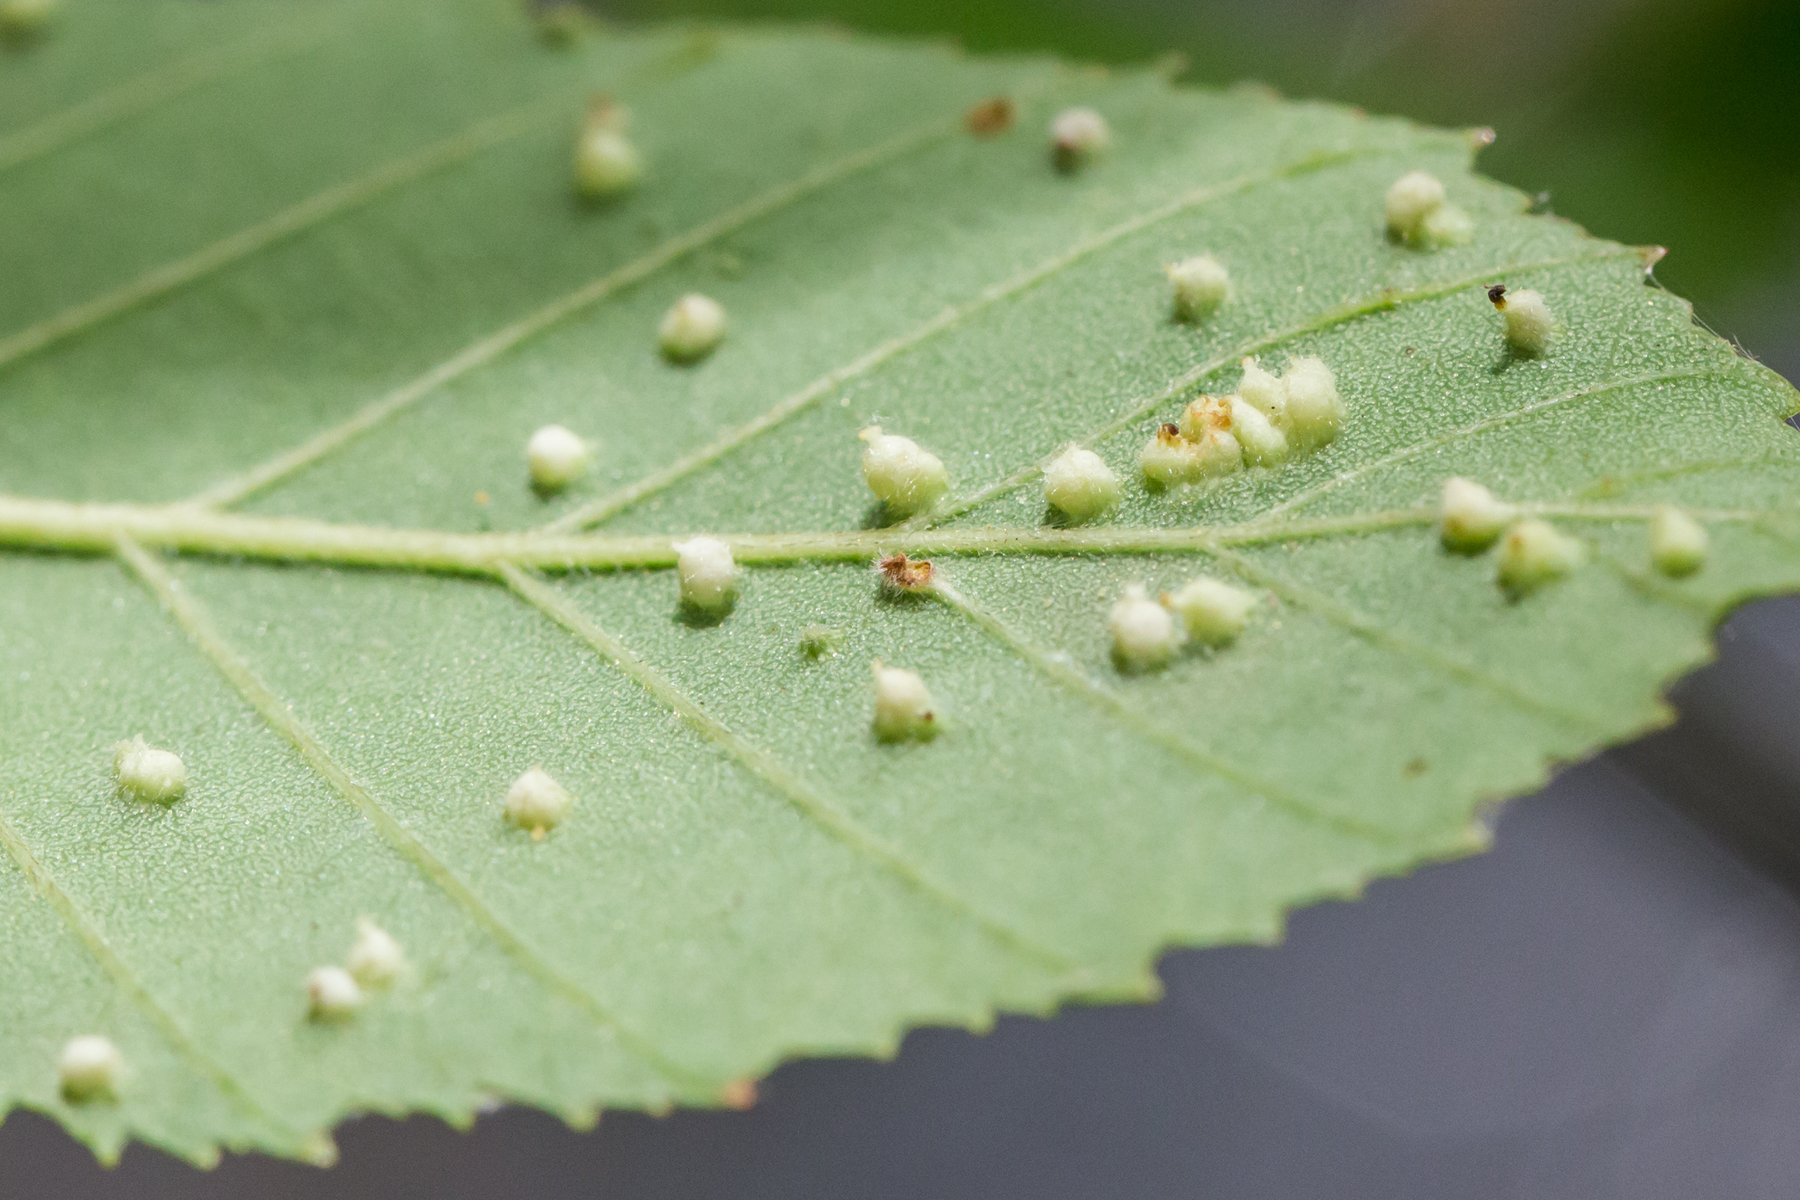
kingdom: Animalia
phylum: Arthropoda
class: Arachnida
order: Trombidiformes
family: Eriophyidae
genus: Aculus
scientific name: Aculus leionotus
